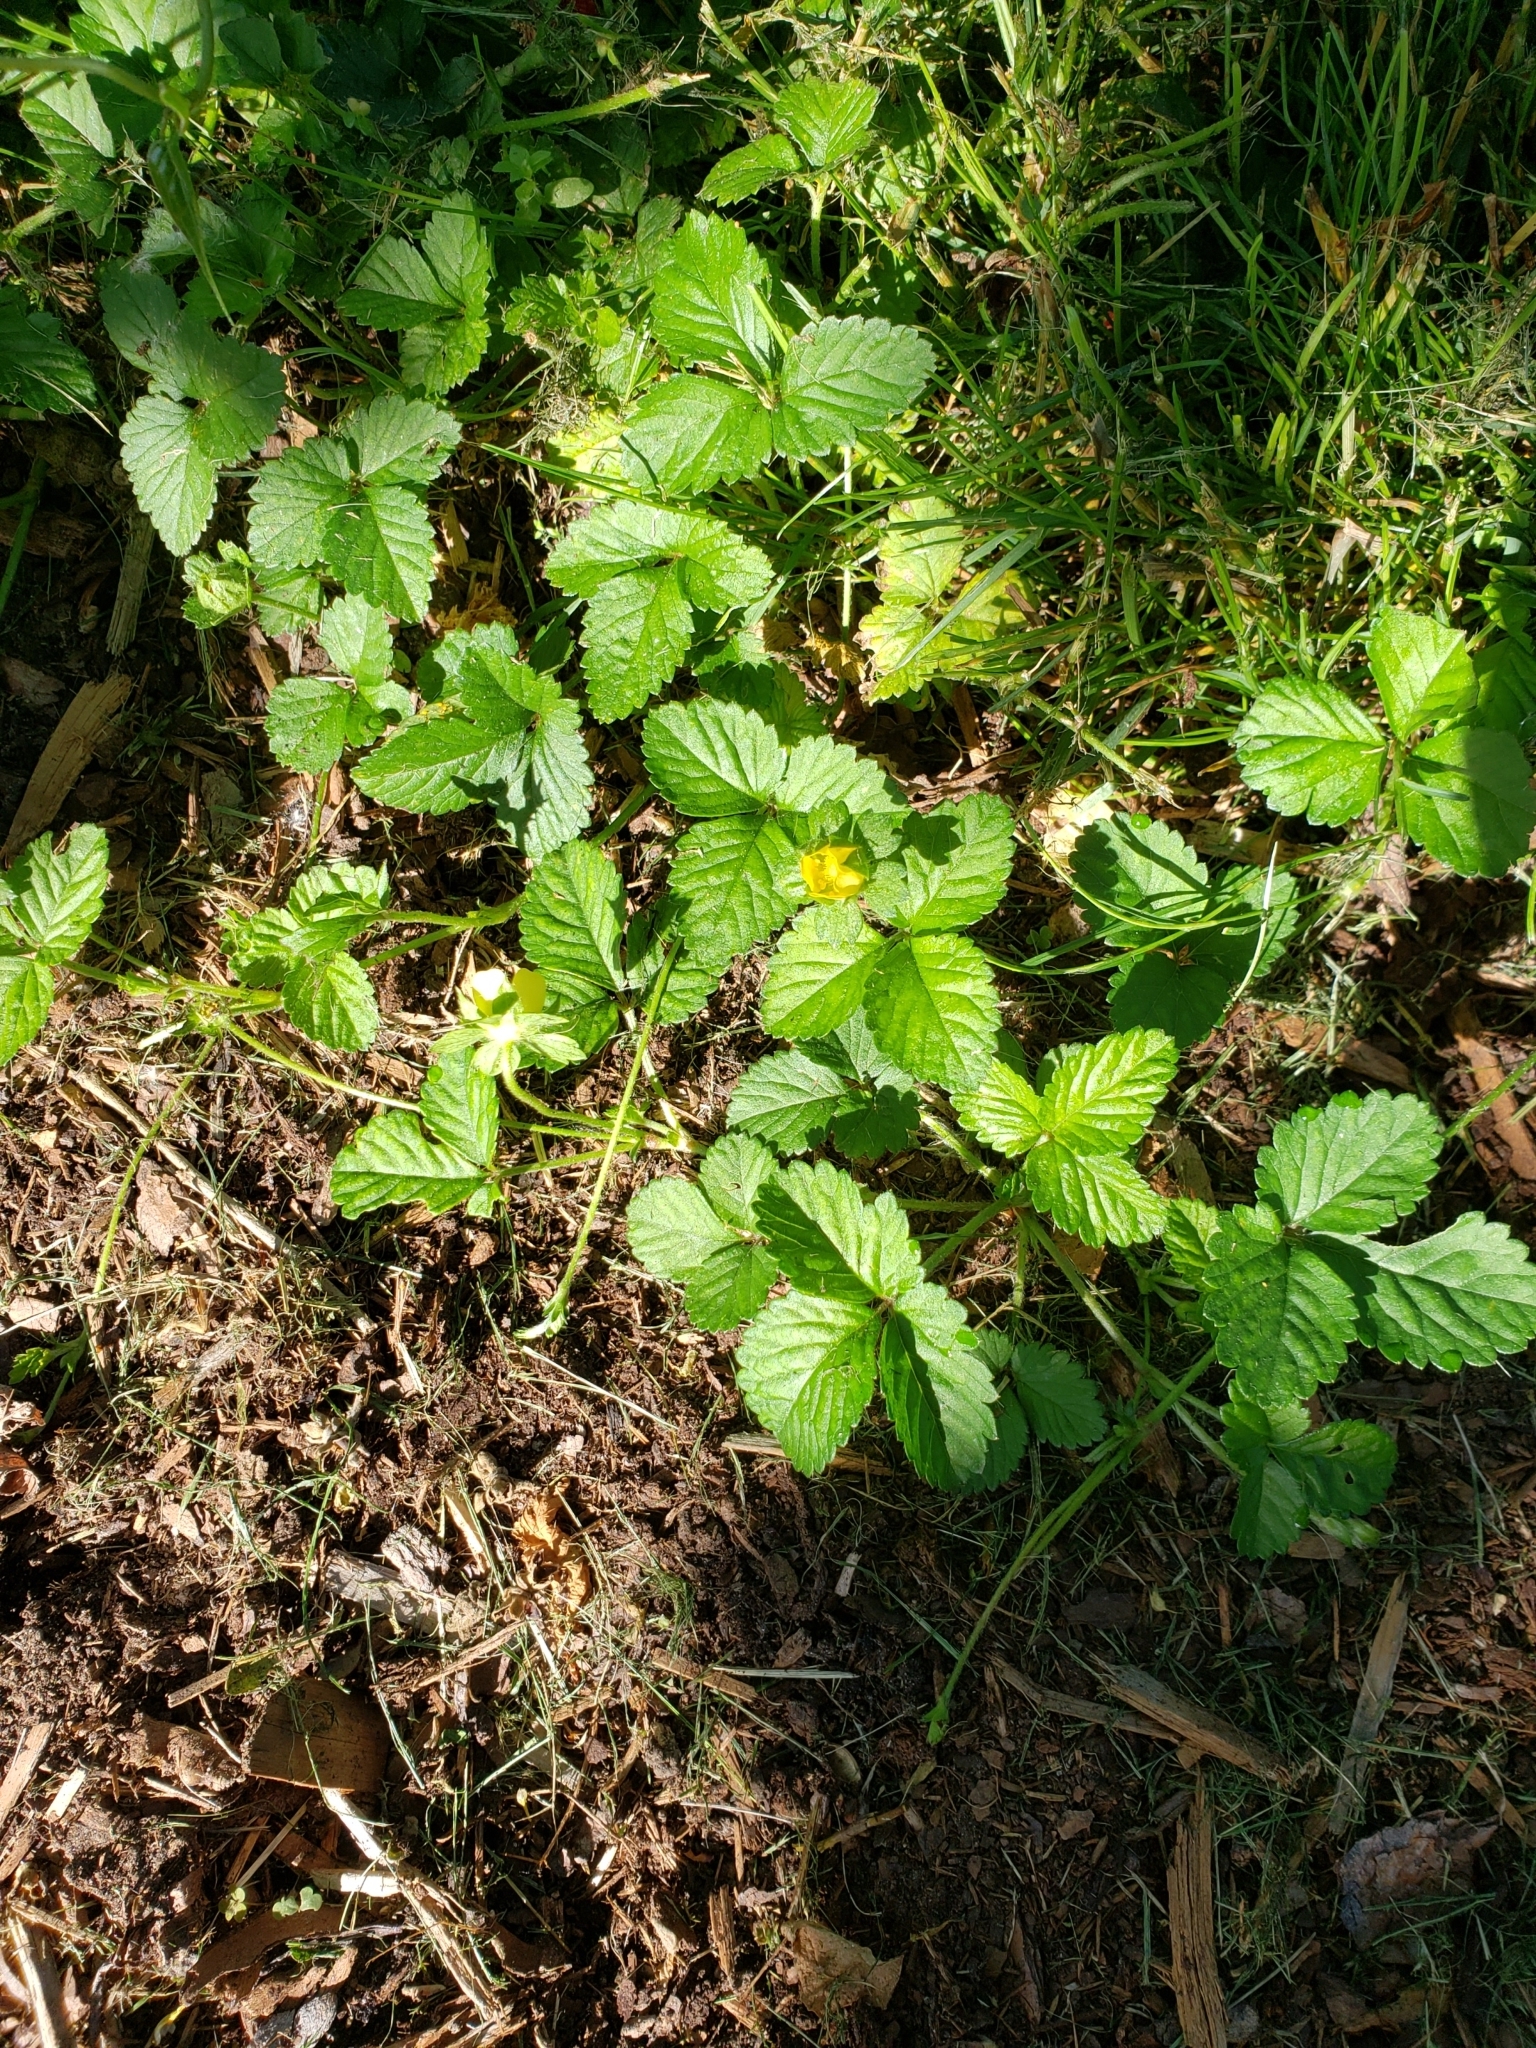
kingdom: Plantae
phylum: Tracheophyta
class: Magnoliopsida
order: Rosales
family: Rosaceae
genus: Potentilla
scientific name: Potentilla indica
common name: Yellow-flowered strawberry
